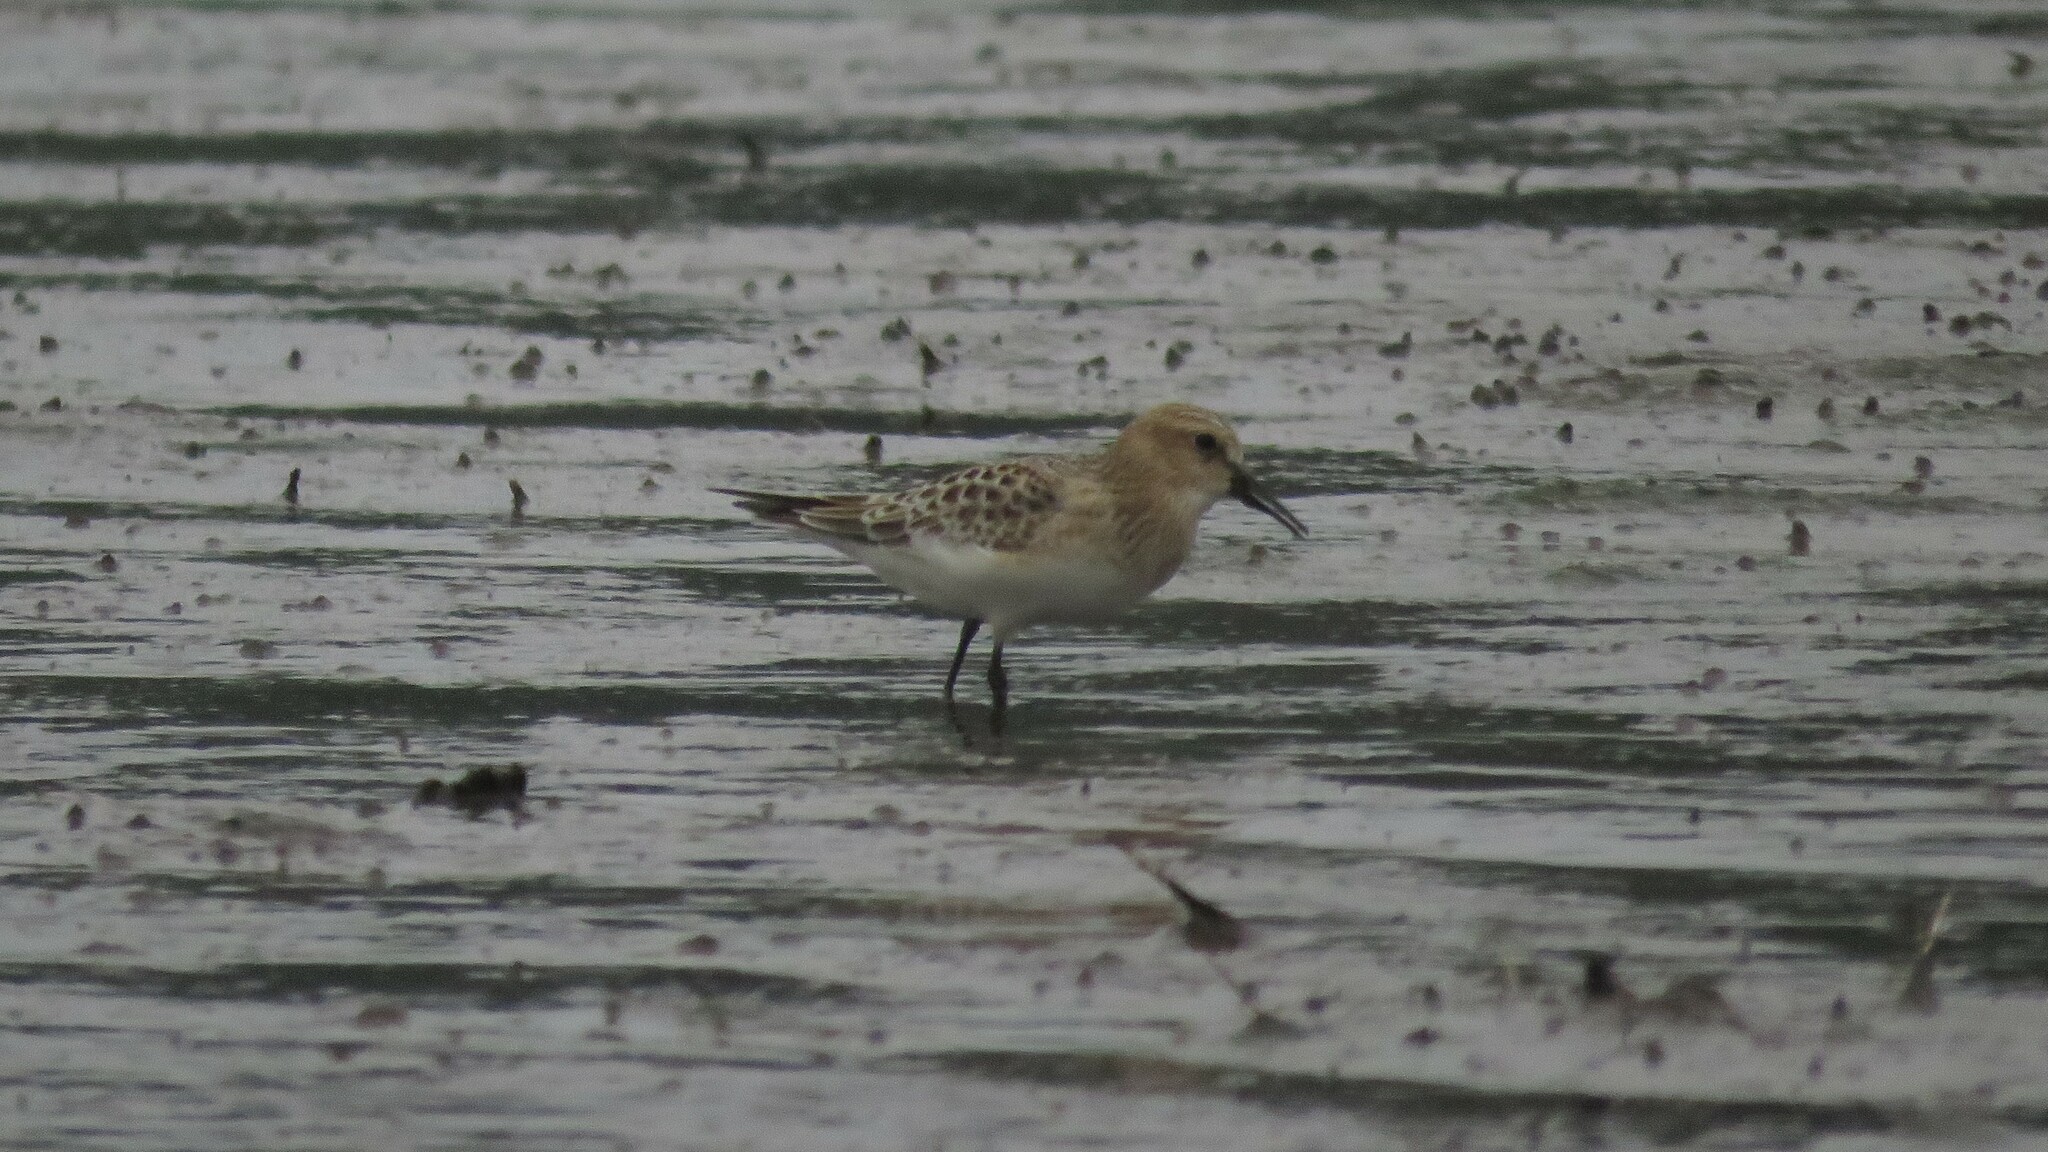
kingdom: Animalia
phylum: Chordata
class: Aves
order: Charadriiformes
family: Scolopacidae
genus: Calidris
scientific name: Calidris bairdii
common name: Baird's sandpiper
